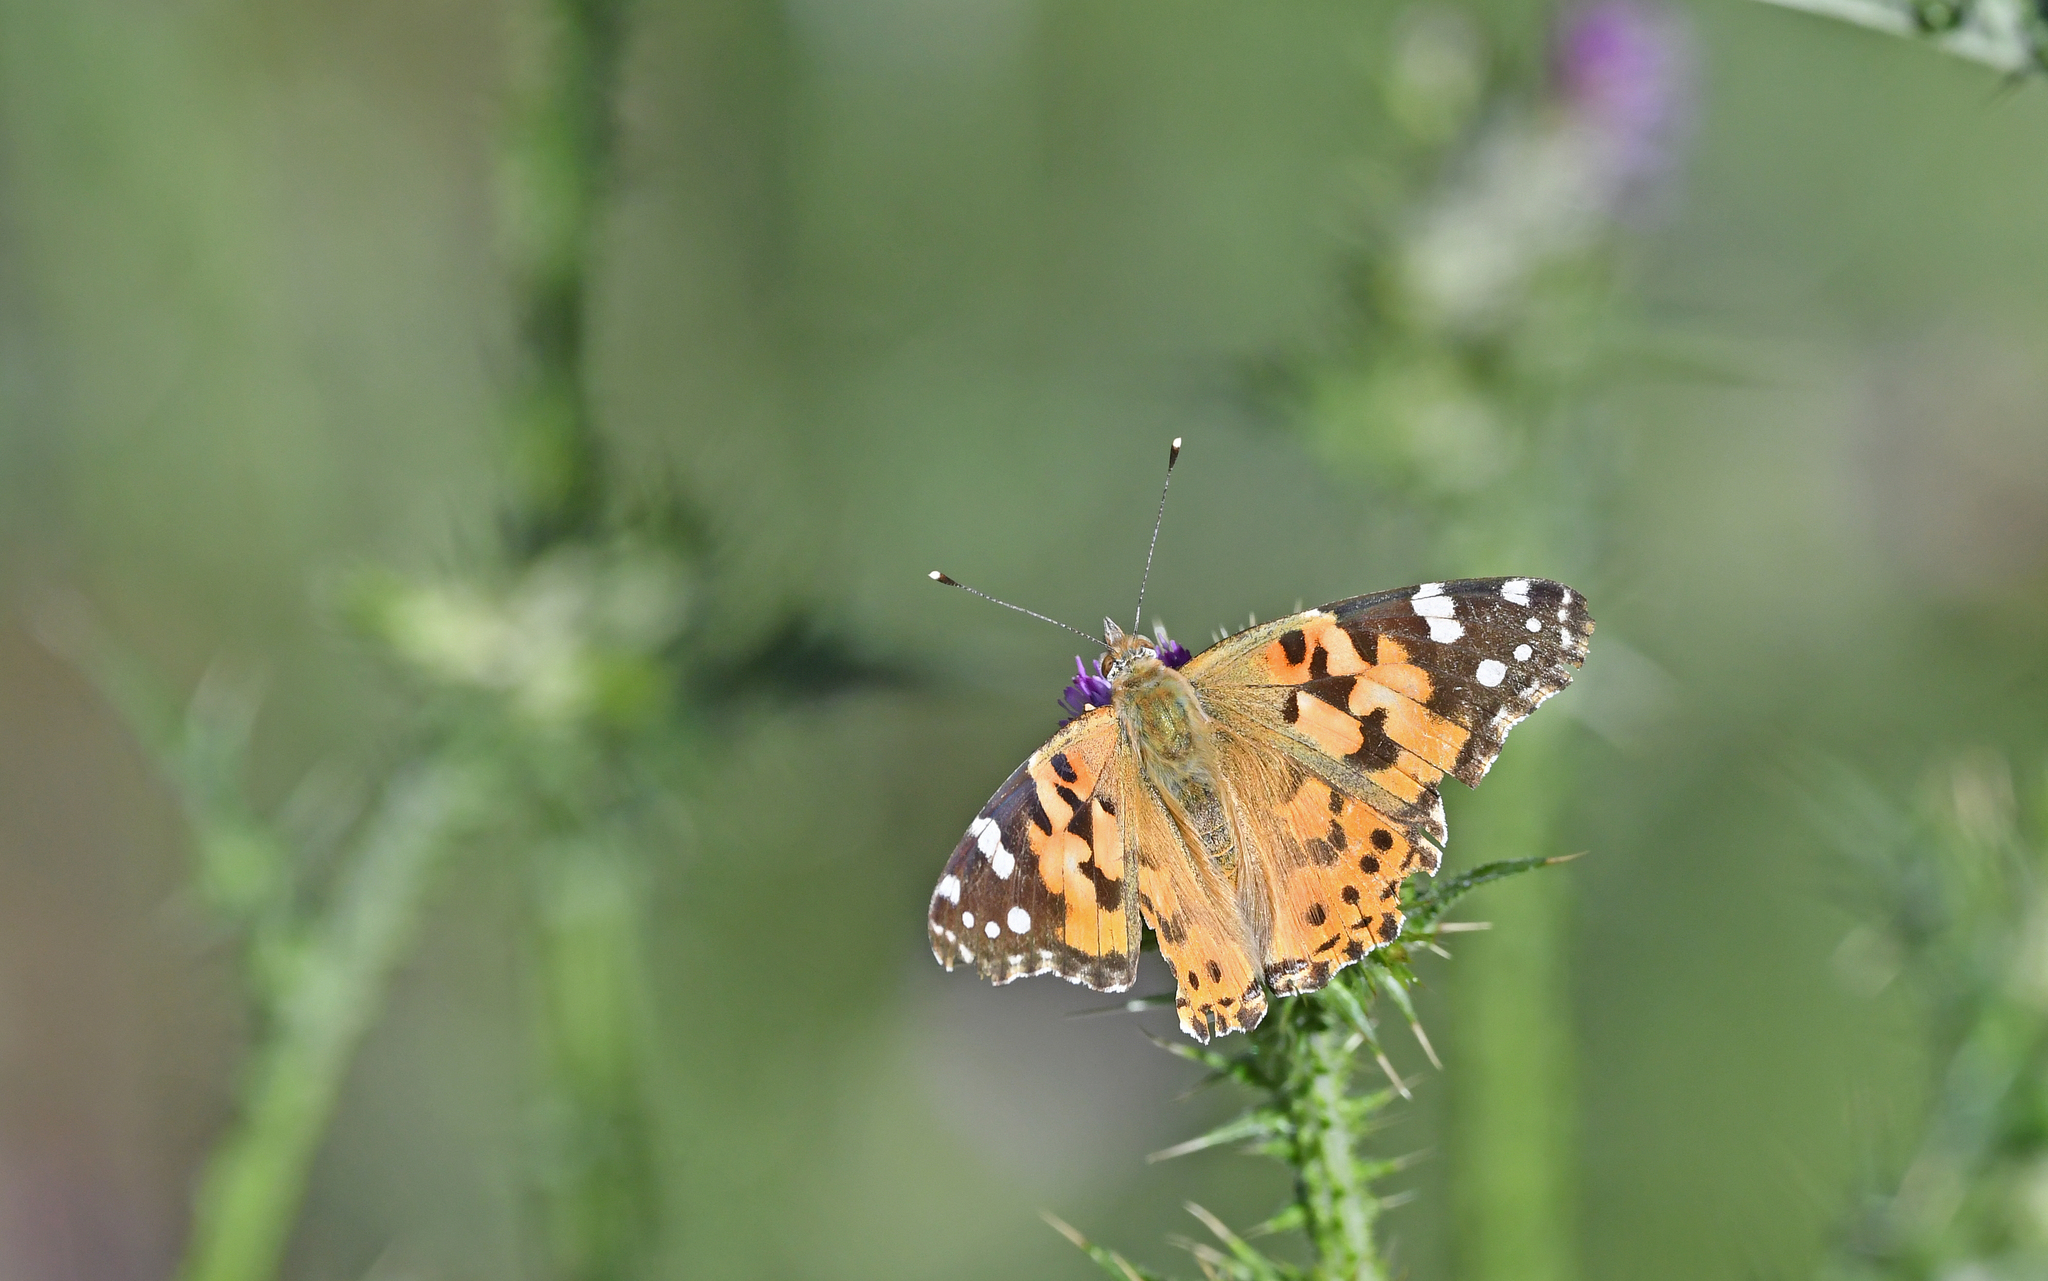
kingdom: Animalia
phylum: Arthropoda
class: Insecta
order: Lepidoptera
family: Nymphalidae
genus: Vanessa
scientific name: Vanessa cardui
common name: Painted lady
